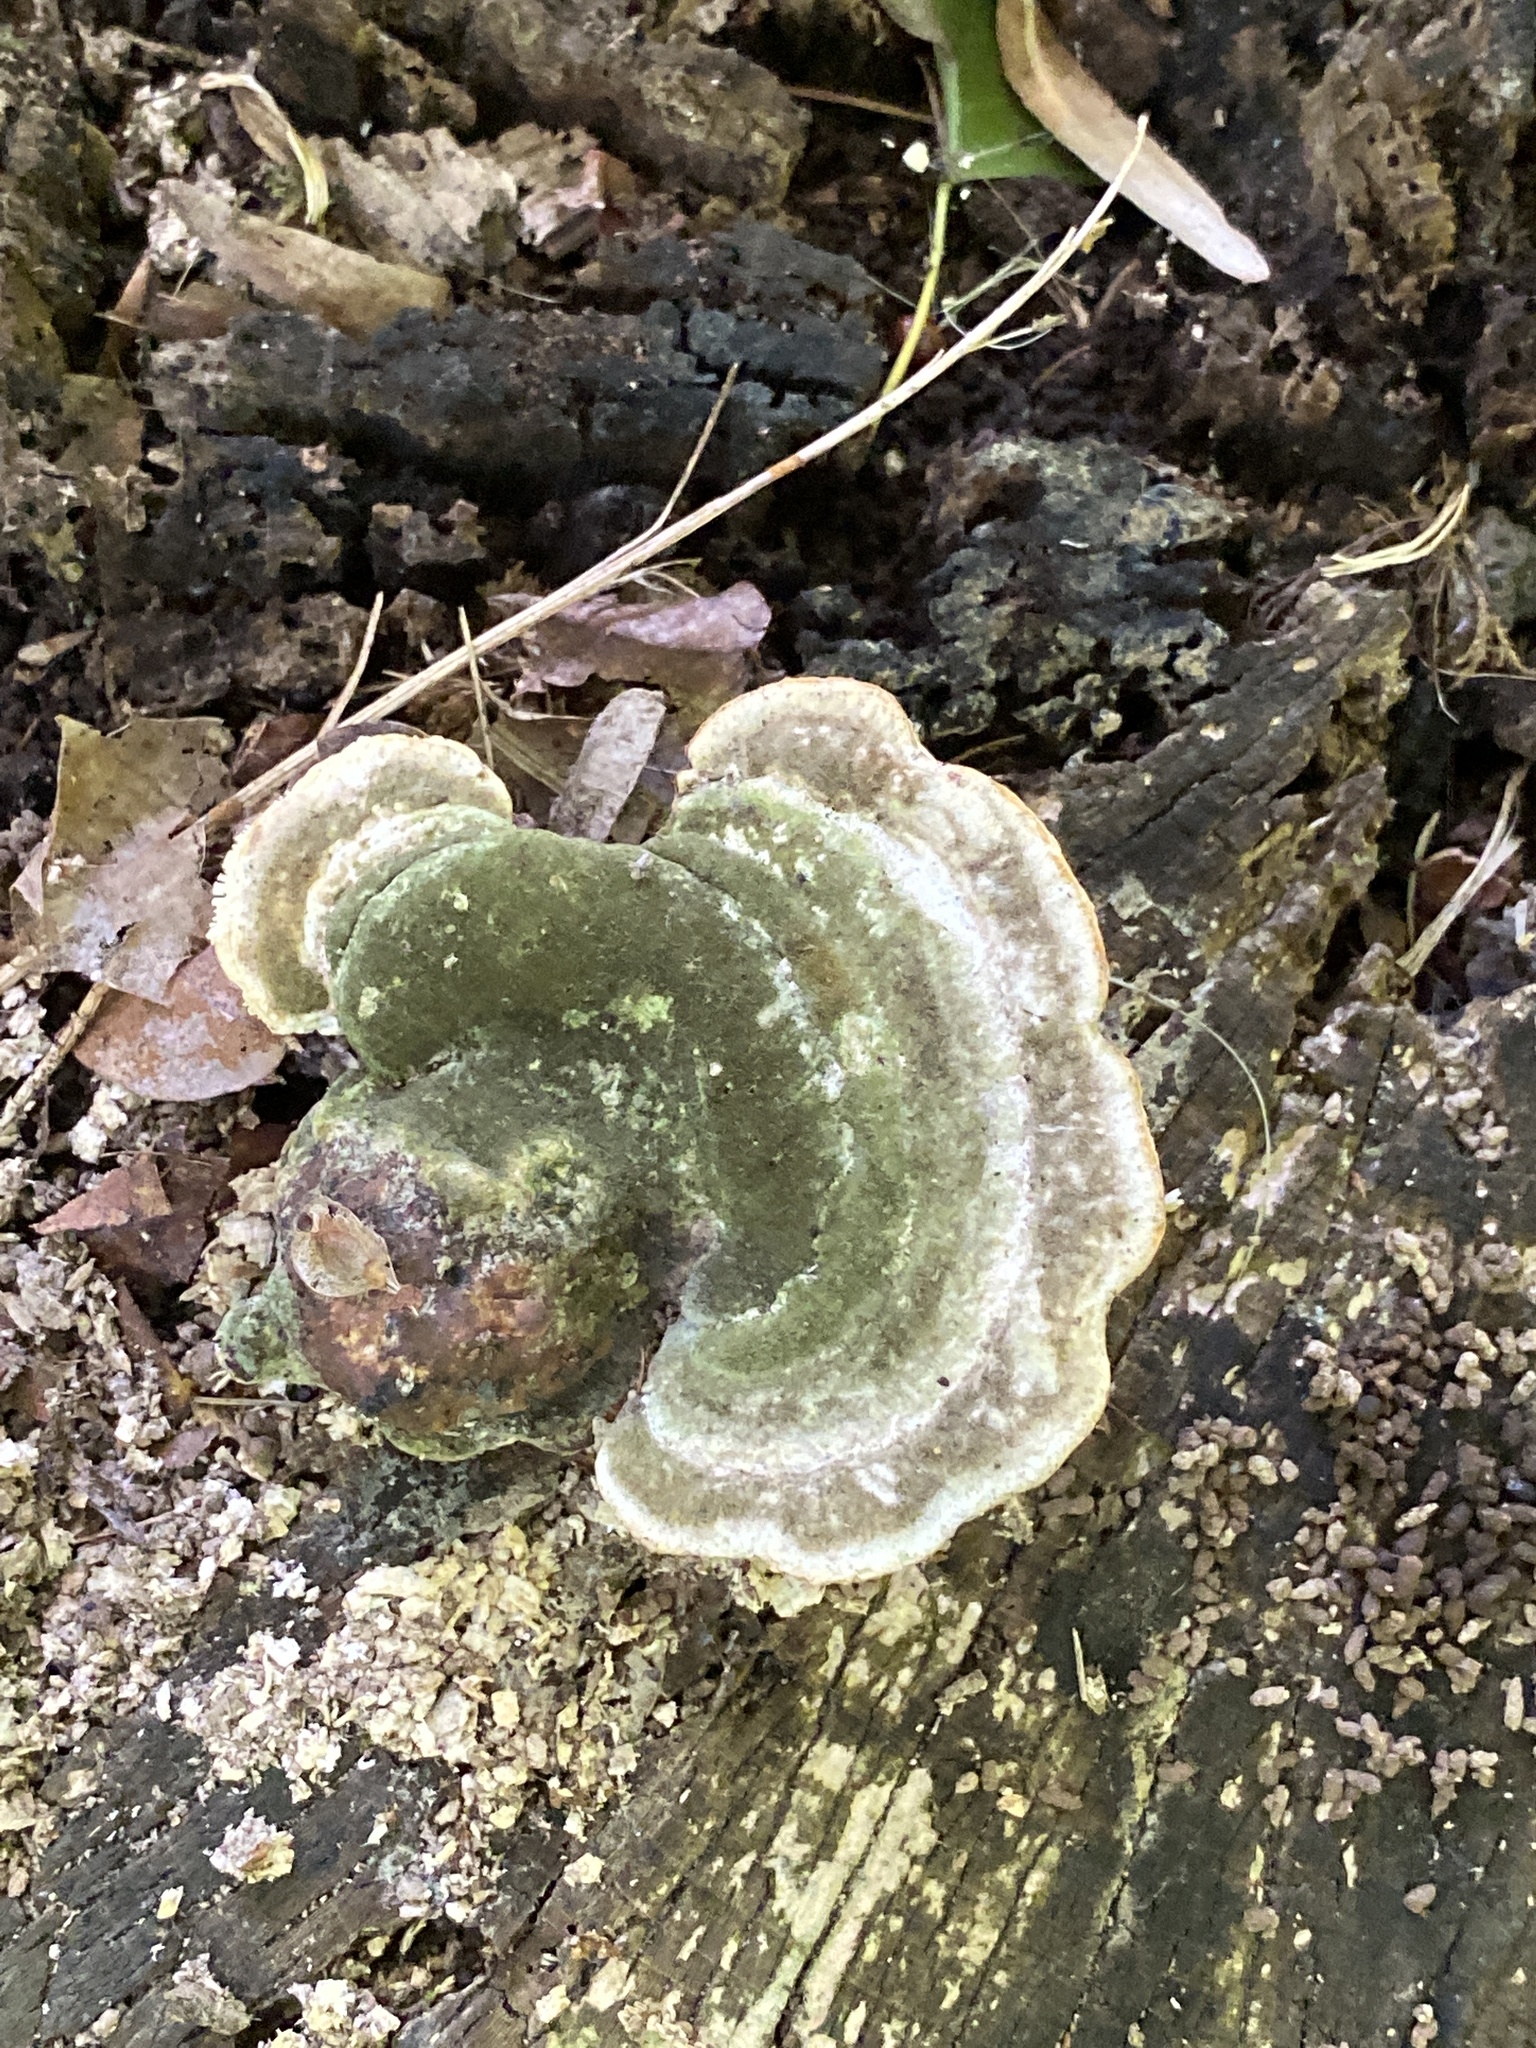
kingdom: Fungi
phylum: Basidiomycota
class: Agaricomycetes
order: Polyporales
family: Polyporaceae
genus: Trametes
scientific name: Trametes gibbosa
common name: Lumpy bracket
